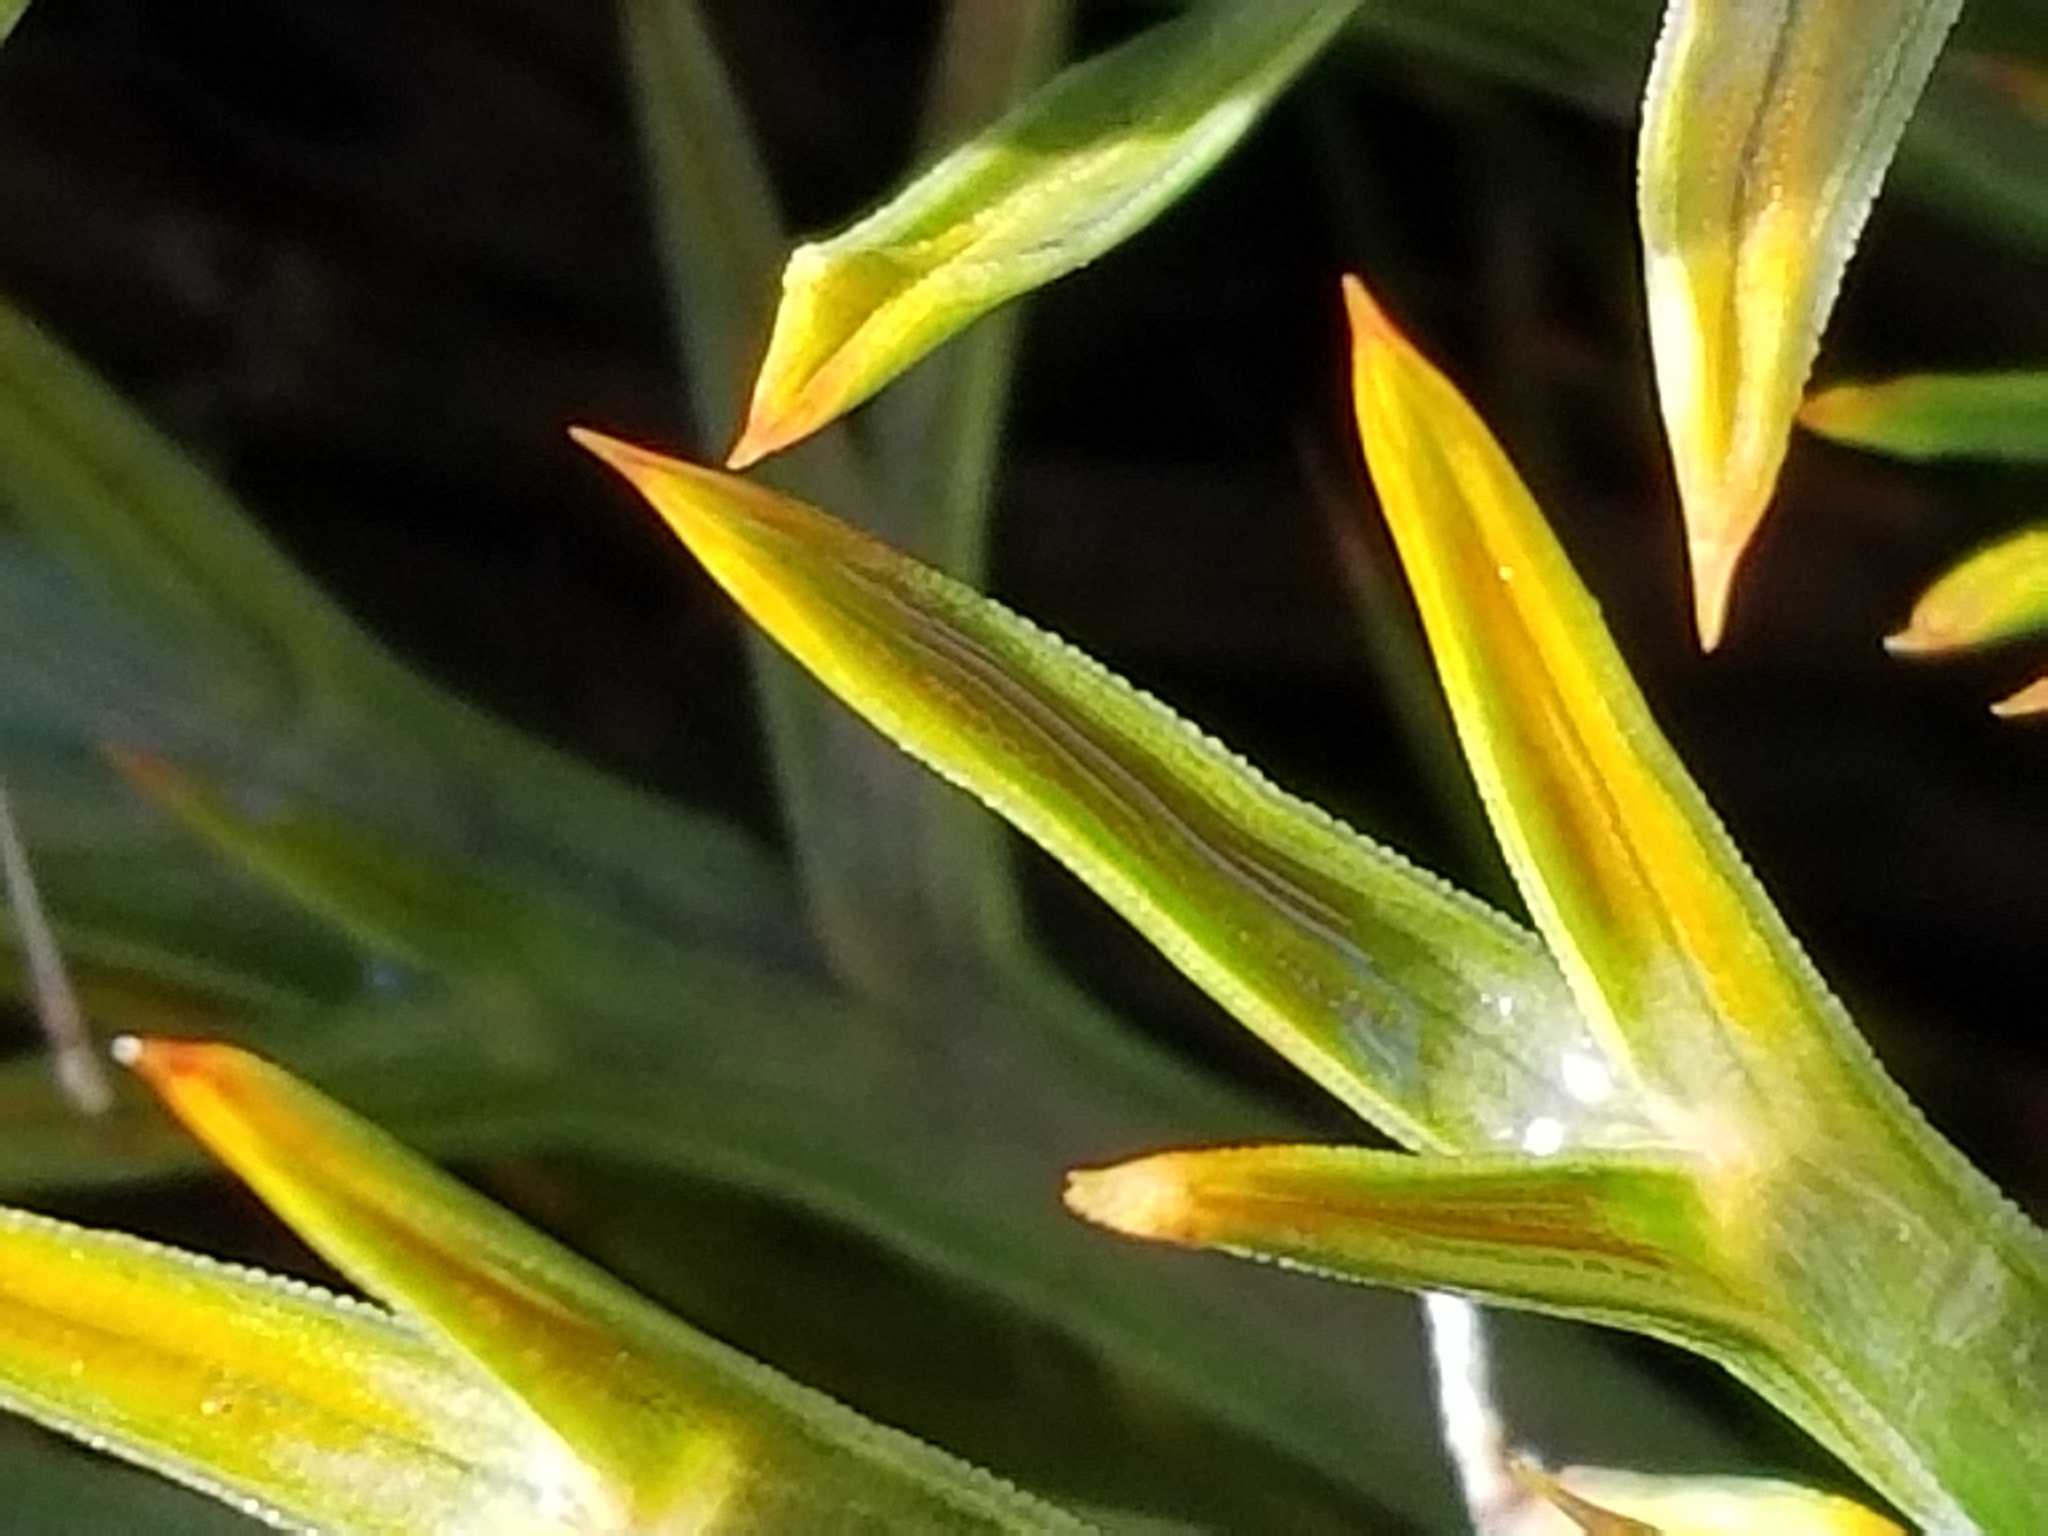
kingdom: Plantae
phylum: Tracheophyta
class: Magnoliopsida
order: Apiales
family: Apiaceae
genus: Aciphylla
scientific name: Aciphylla hookeri
